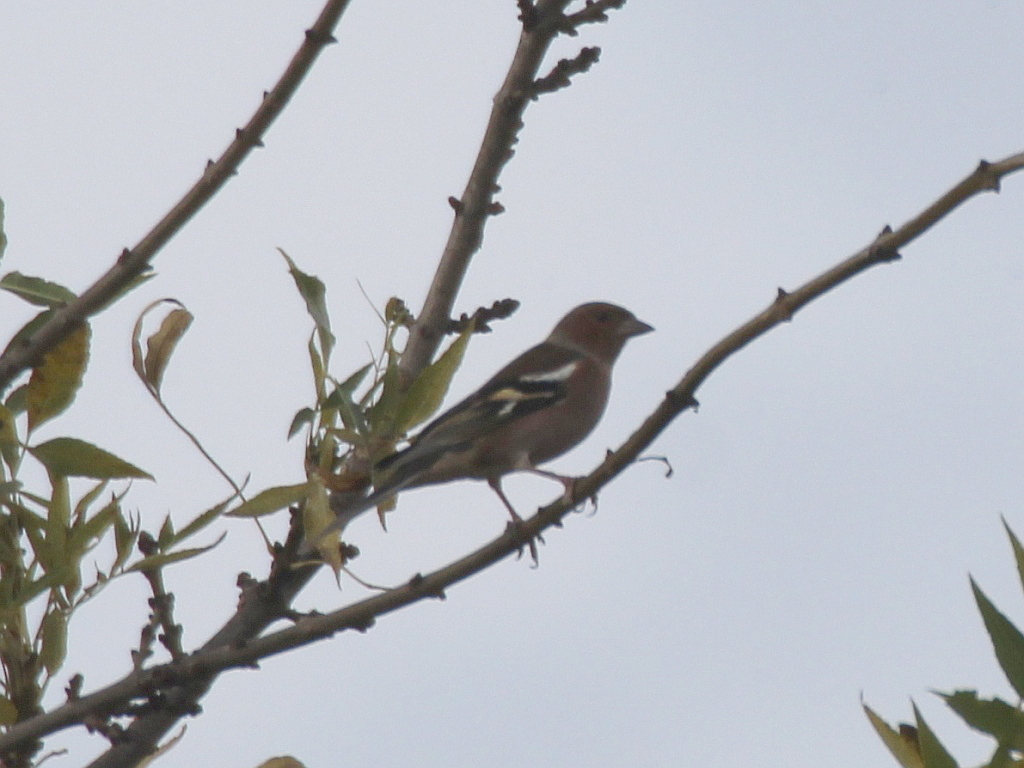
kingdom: Animalia
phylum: Chordata
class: Aves
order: Passeriformes
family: Fringillidae
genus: Fringilla
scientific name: Fringilla coelebs
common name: Common chaffinch
